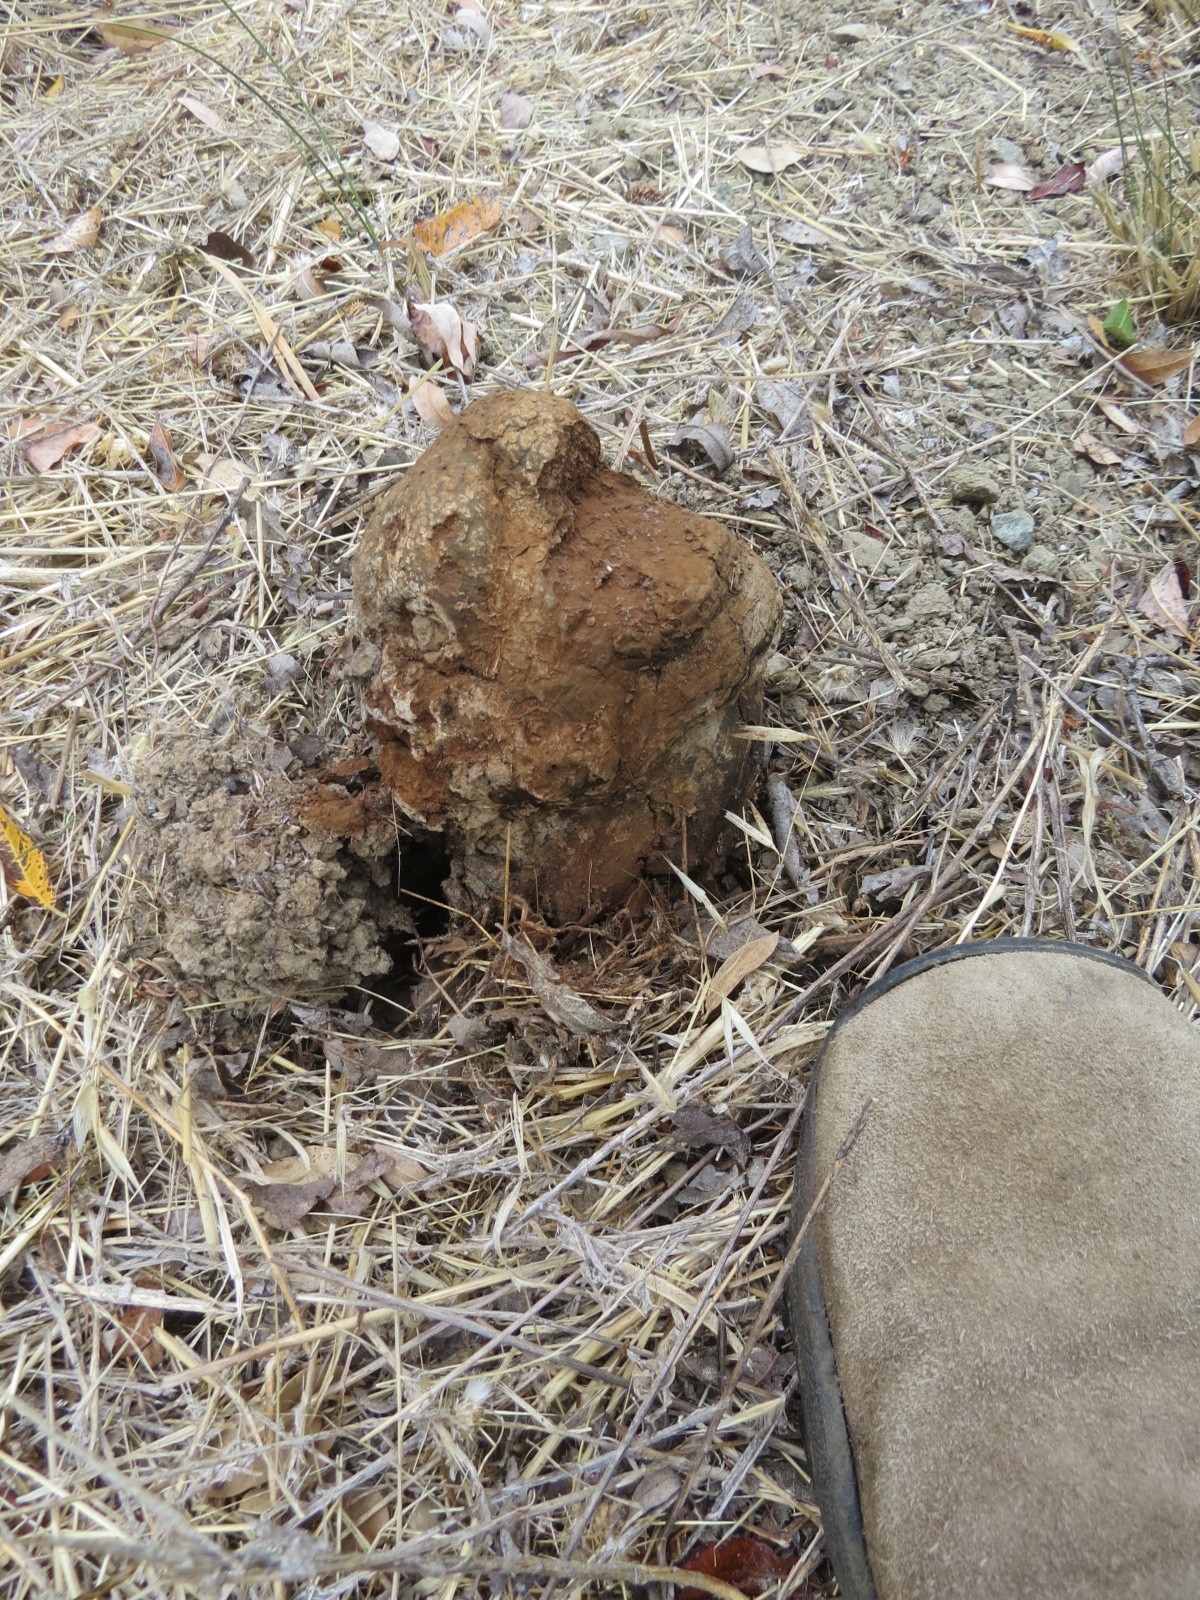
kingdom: Fungi
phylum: Basidiomycota
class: Agaricomycetes
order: Boletales
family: Sclerodermataceae
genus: Pisolithus
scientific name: Pisolithus tinctorius
